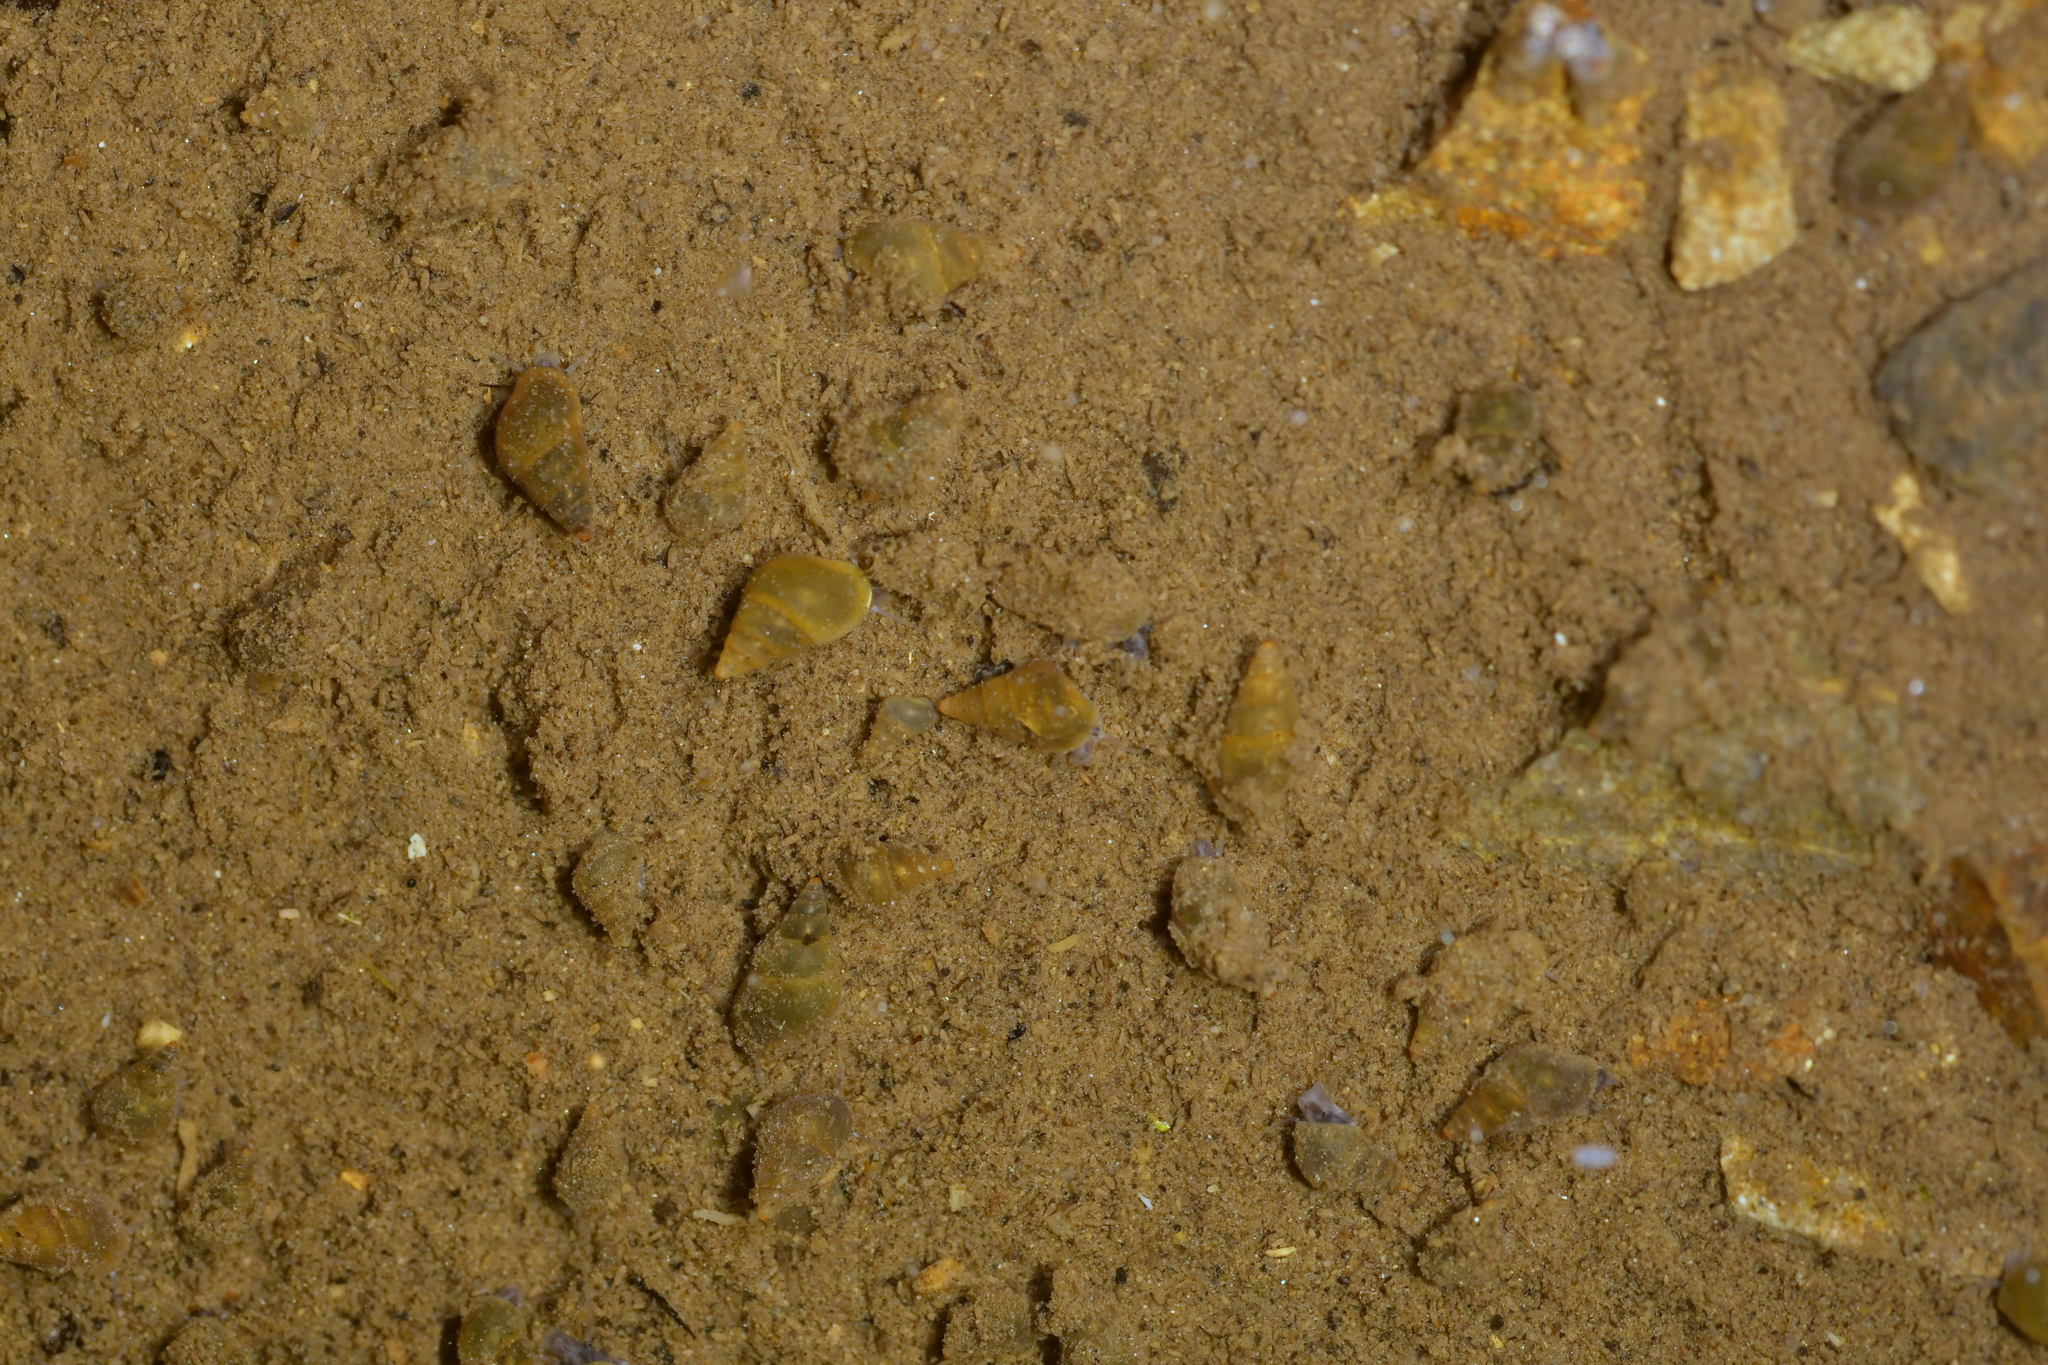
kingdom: Animalia
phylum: Mollusca
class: Gastropoda
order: Littorinimorpha
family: Tateidae
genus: Potamopyrgus
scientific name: Potamopyrgus antipodarum
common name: Jenkins' spire snail
